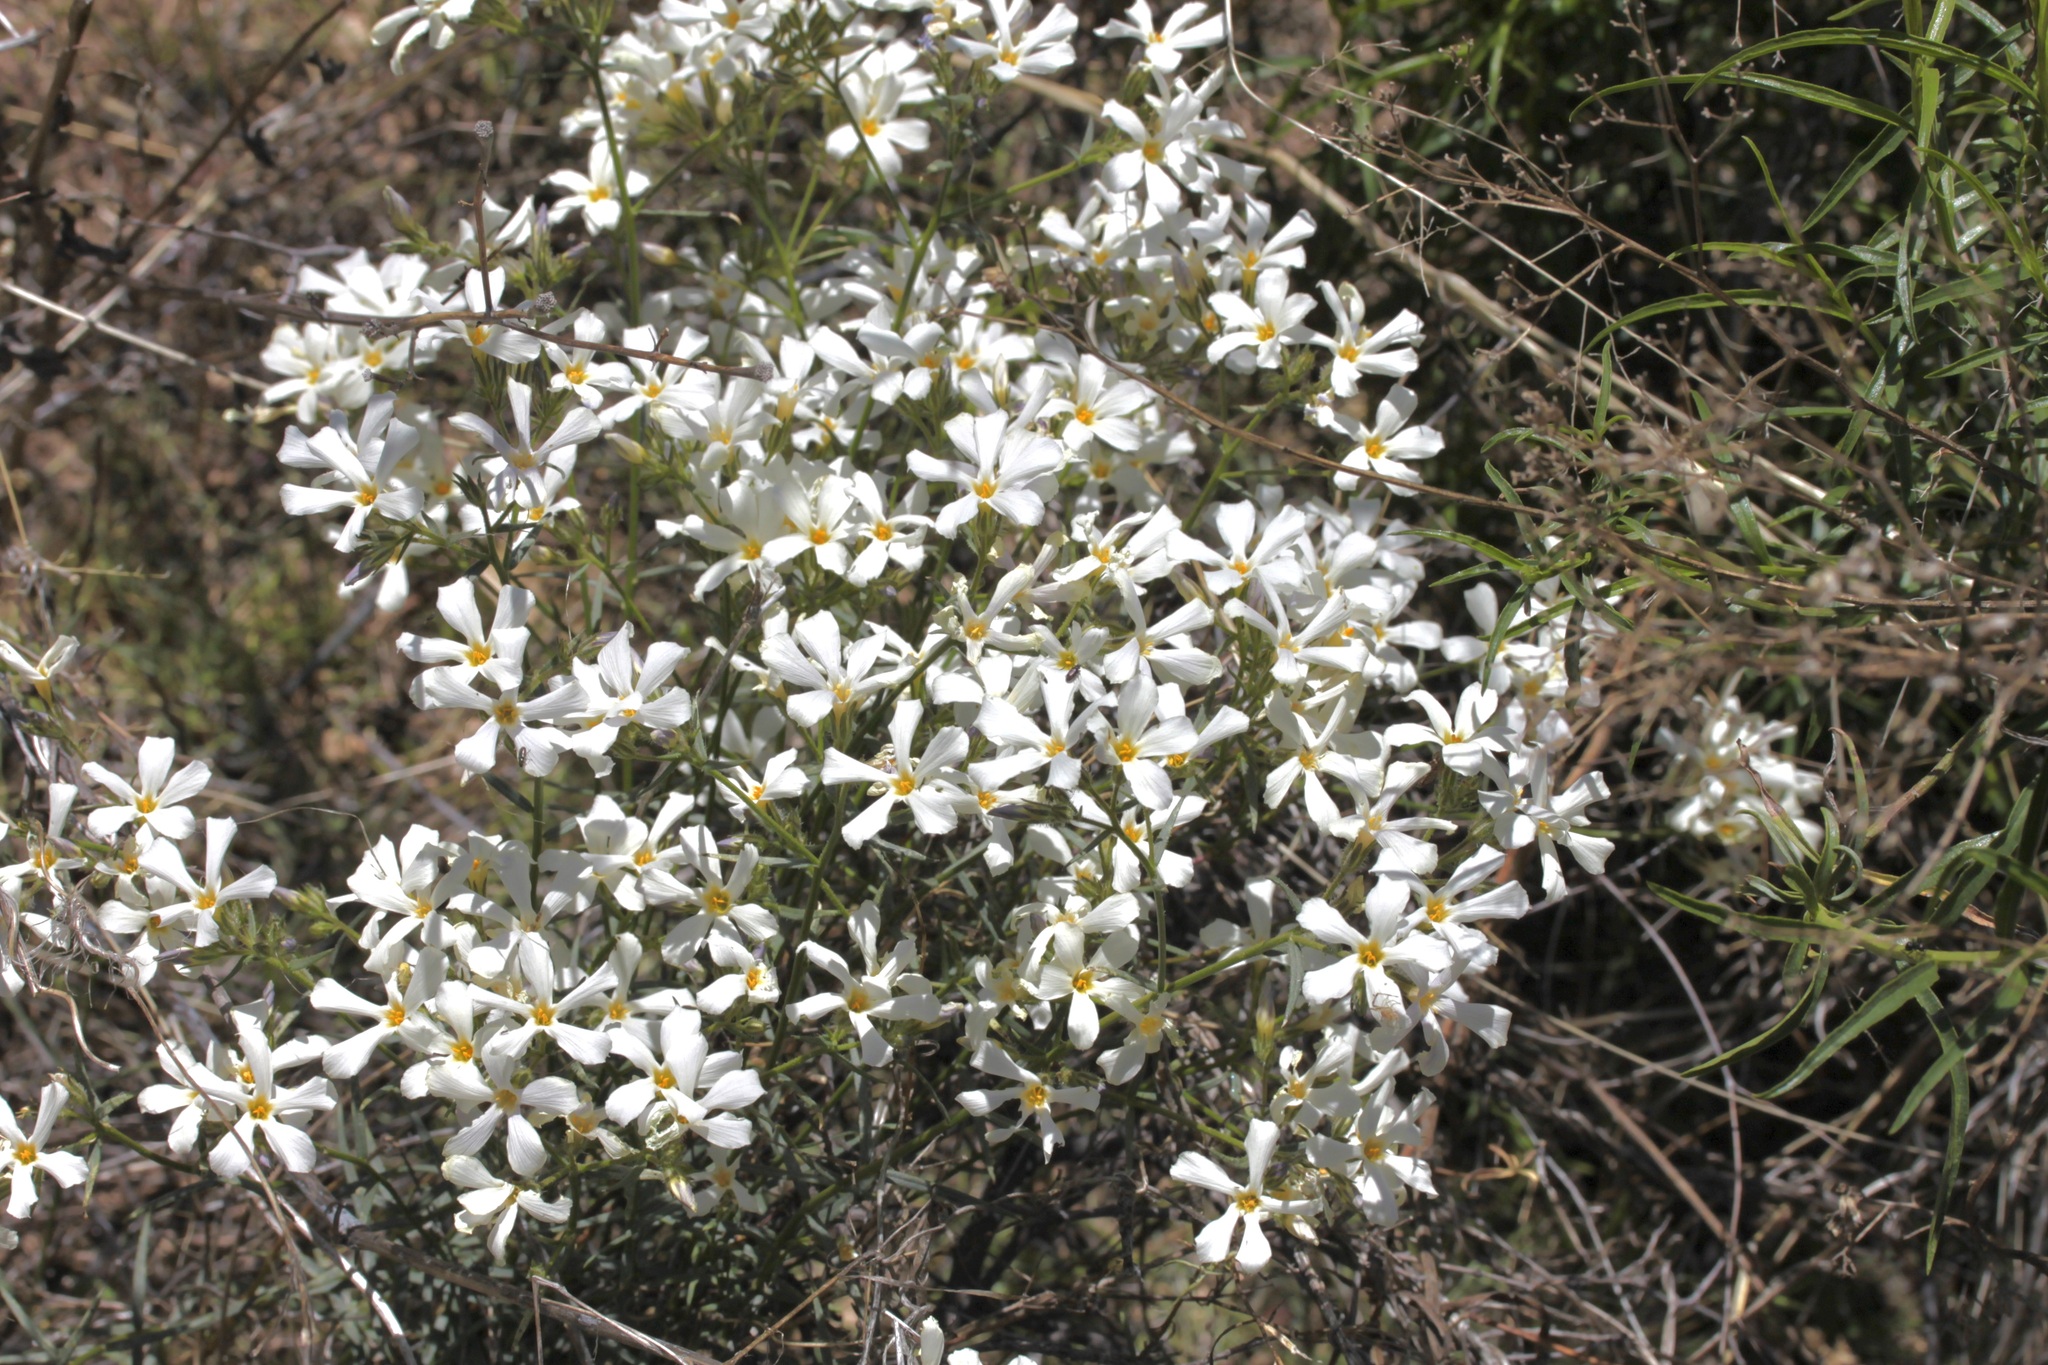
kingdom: Plantae
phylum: Tracheophyta
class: Magnoliopsida
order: Ericales
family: Polemoniaceae
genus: Phlox
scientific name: Phlox tenuifolia
